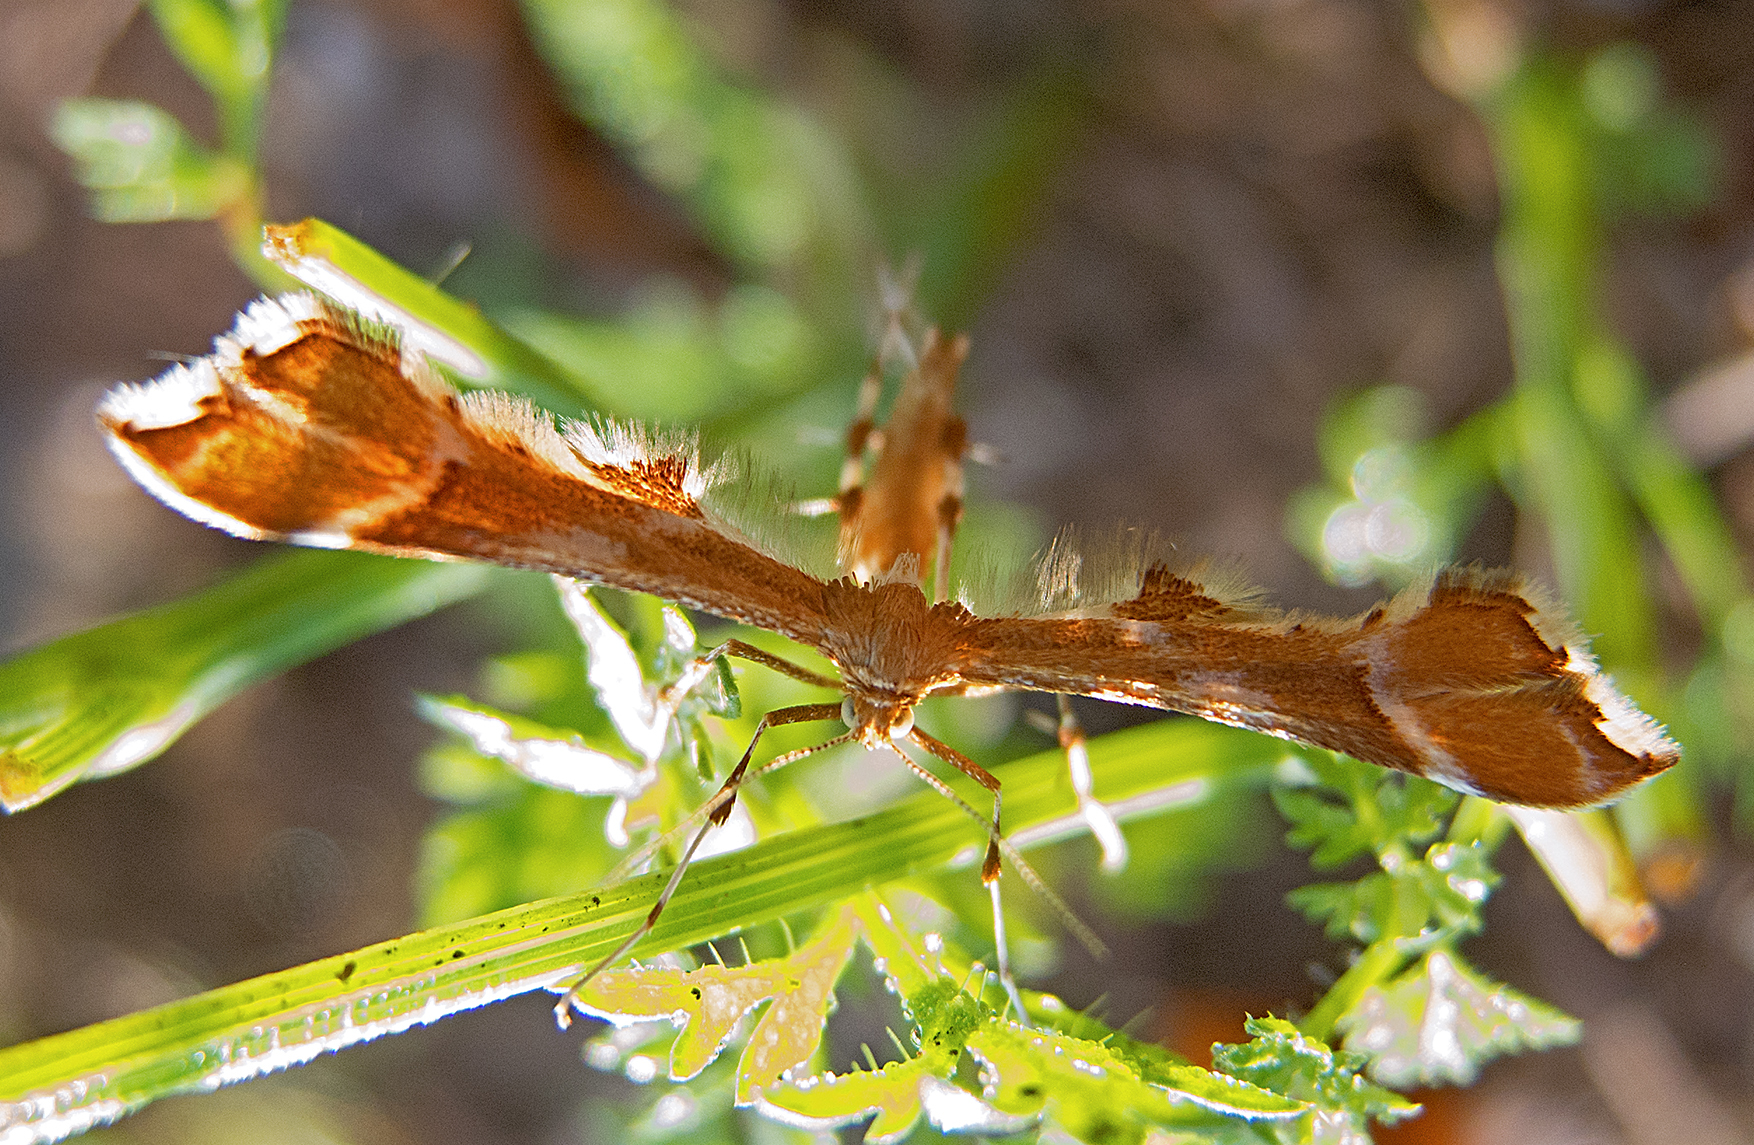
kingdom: Animalia
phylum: Arthropoda
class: Insecta
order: Lepidoptera
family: Pterophoridae
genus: Cnaemidophorus
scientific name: Cnaemidophorus rhododactyla
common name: Rose plume
